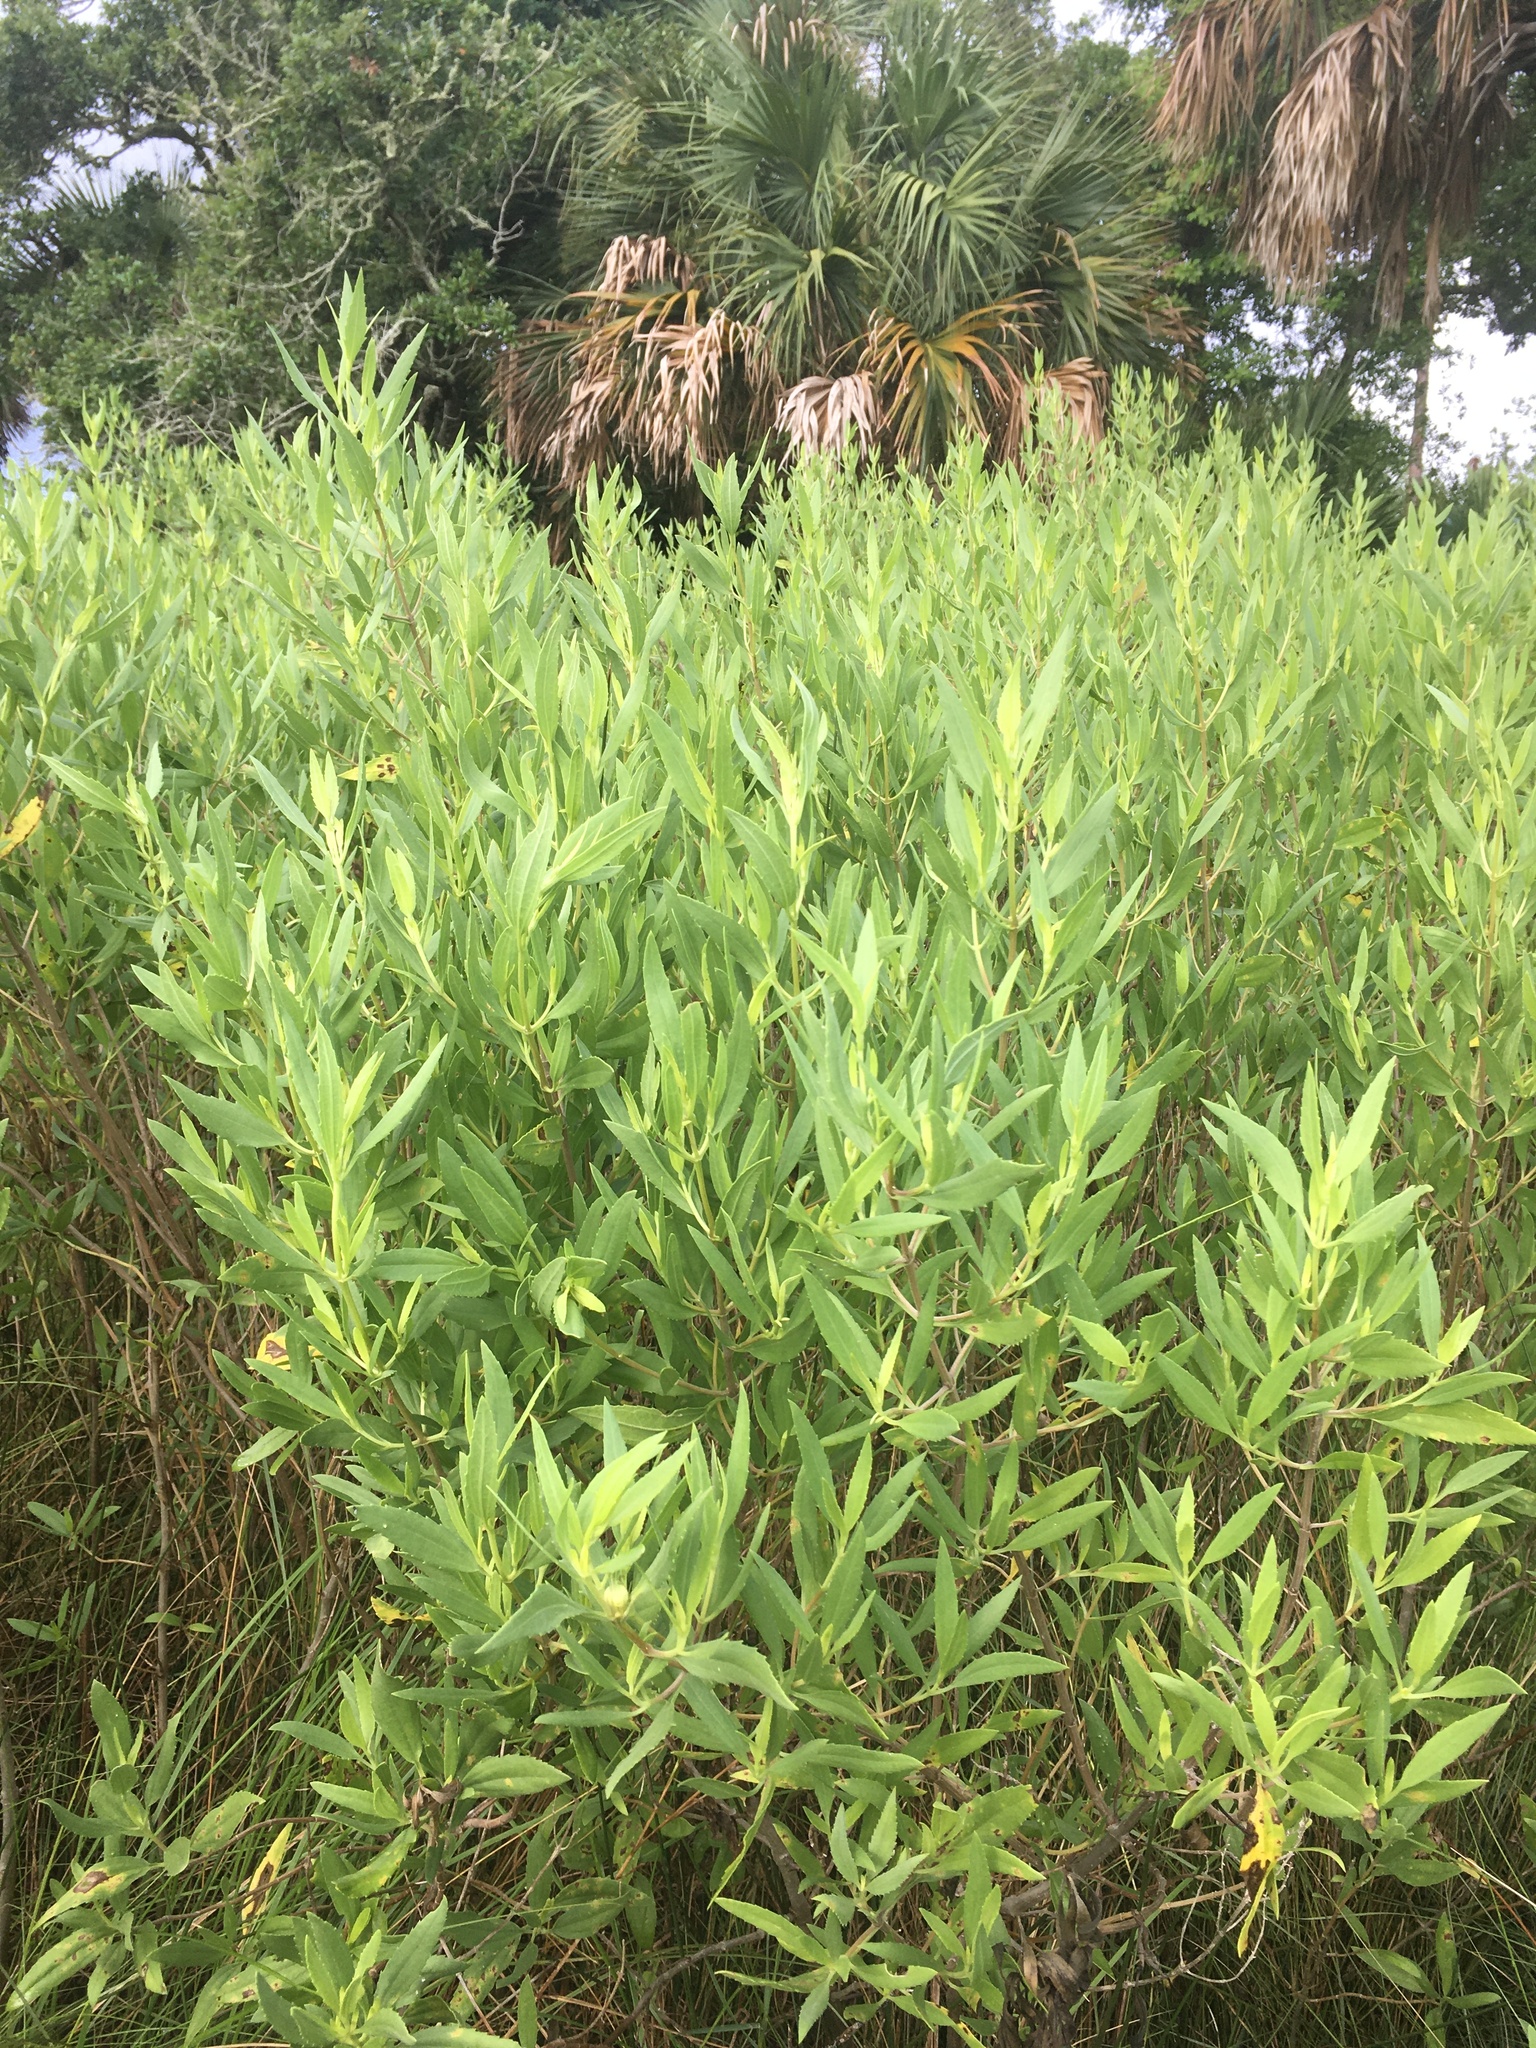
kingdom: Plantae
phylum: Tracheophyta
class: Magnoliopsida
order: Asterales
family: Asteraceae
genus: Iva
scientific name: Iva frutescens
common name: Big-leaved marsh-elder
